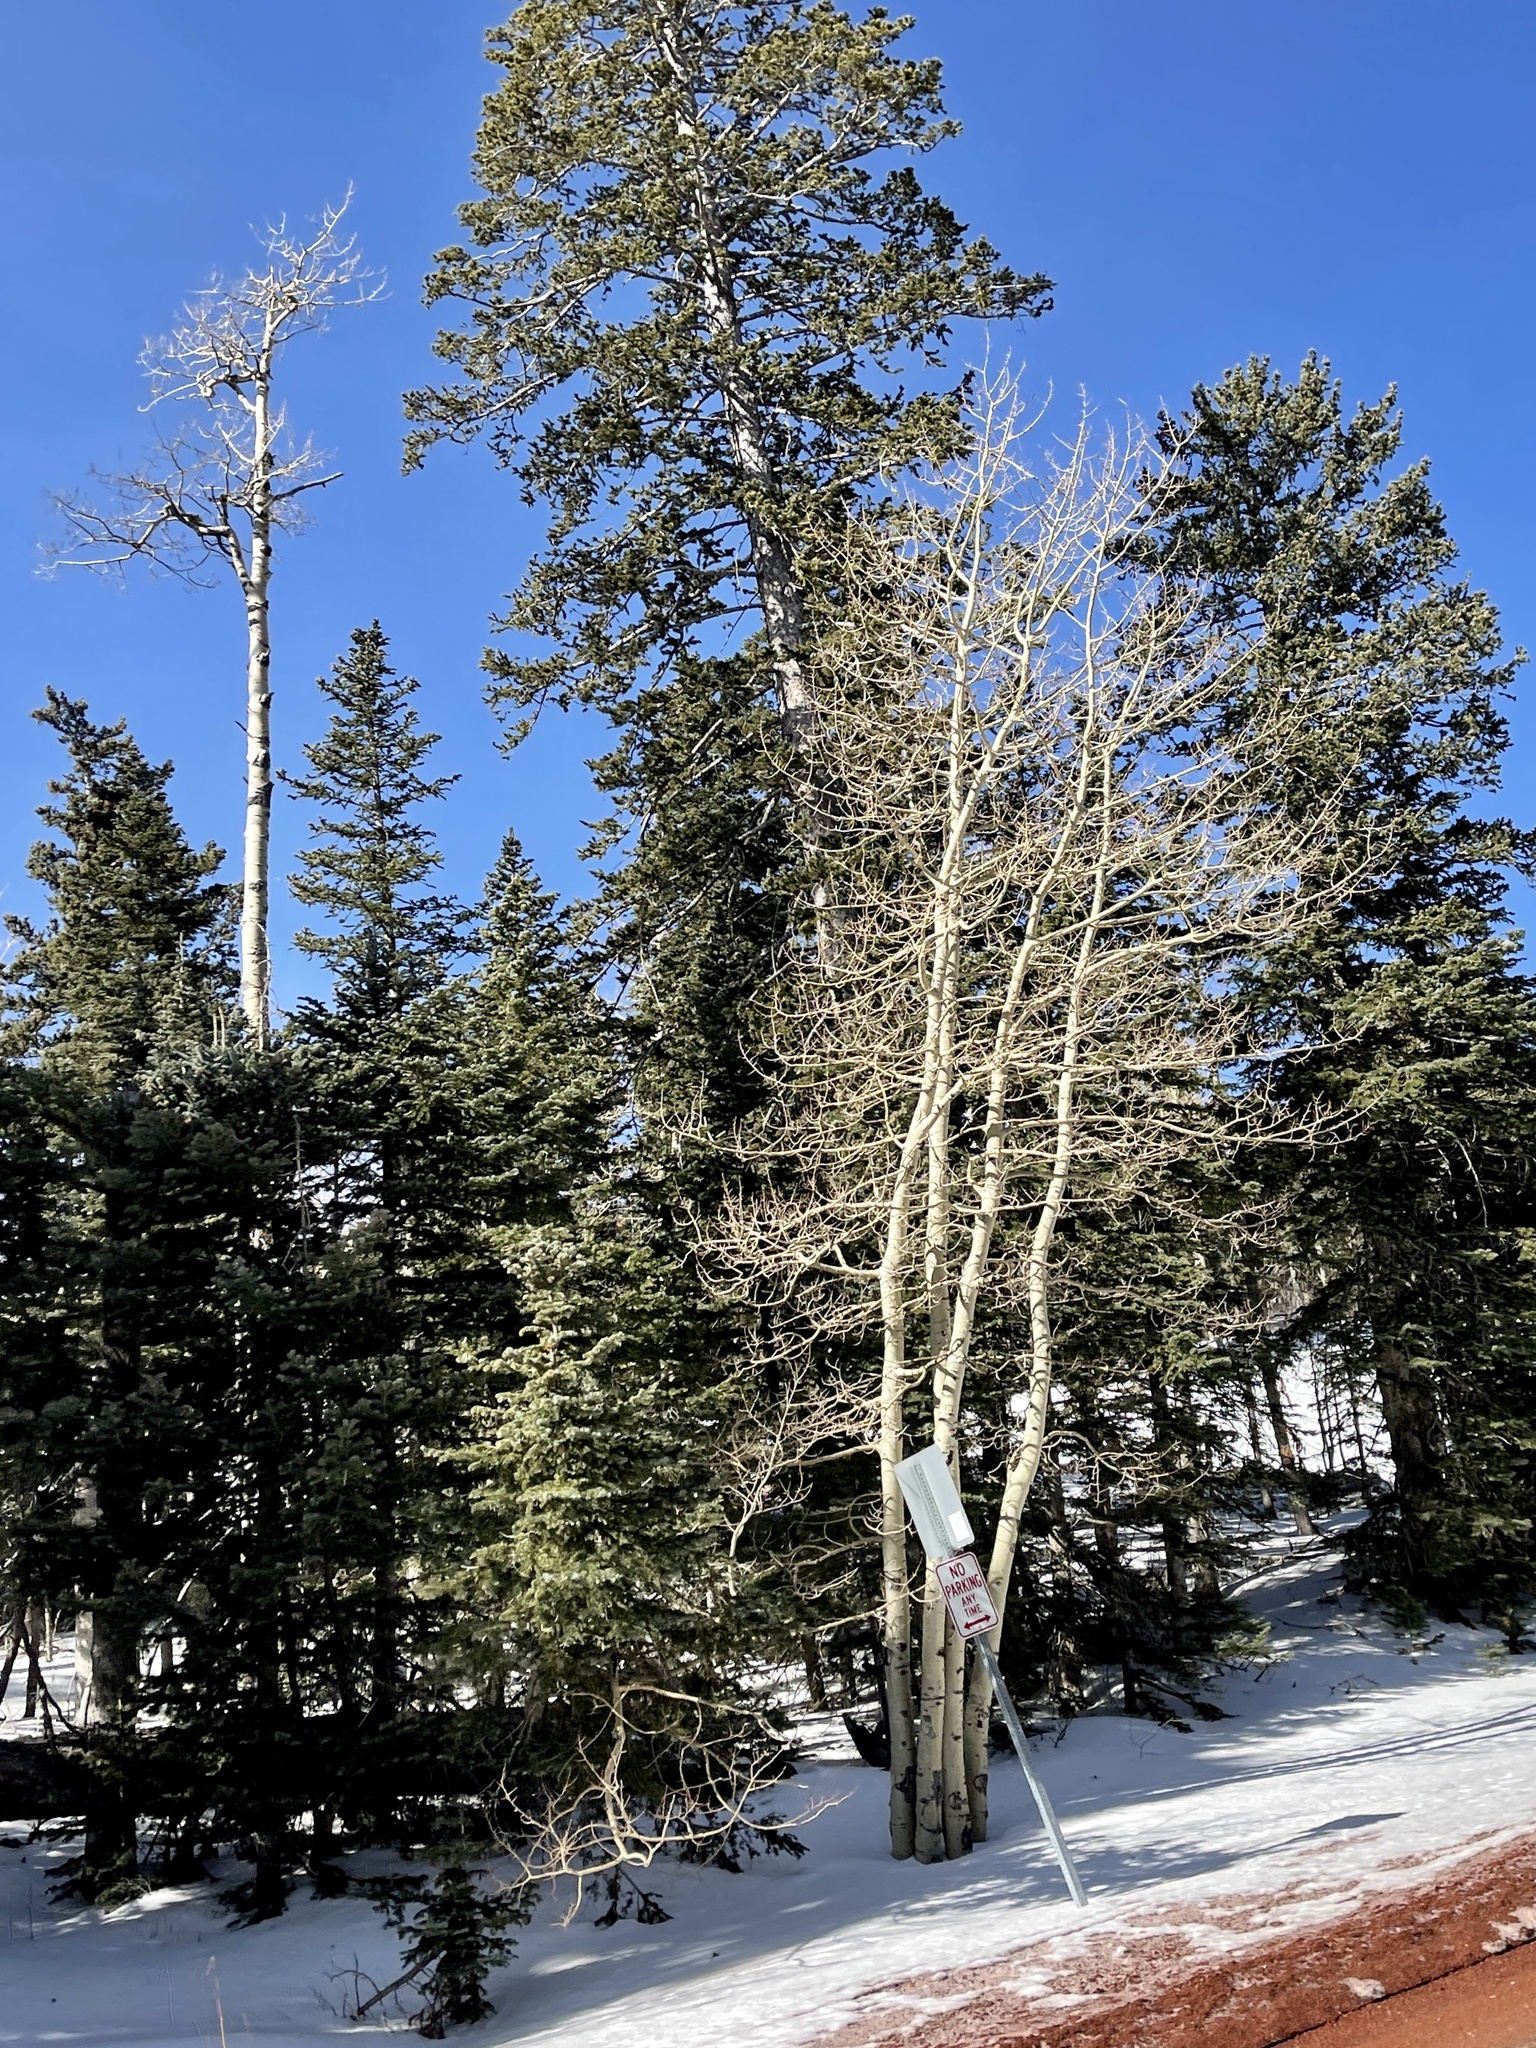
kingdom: Plantae
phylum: Tracheophyta
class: Magnoliopsida
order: Malpighiales
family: Salicaceae
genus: Populus
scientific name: Populus tremuloides
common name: Quaking aspen
